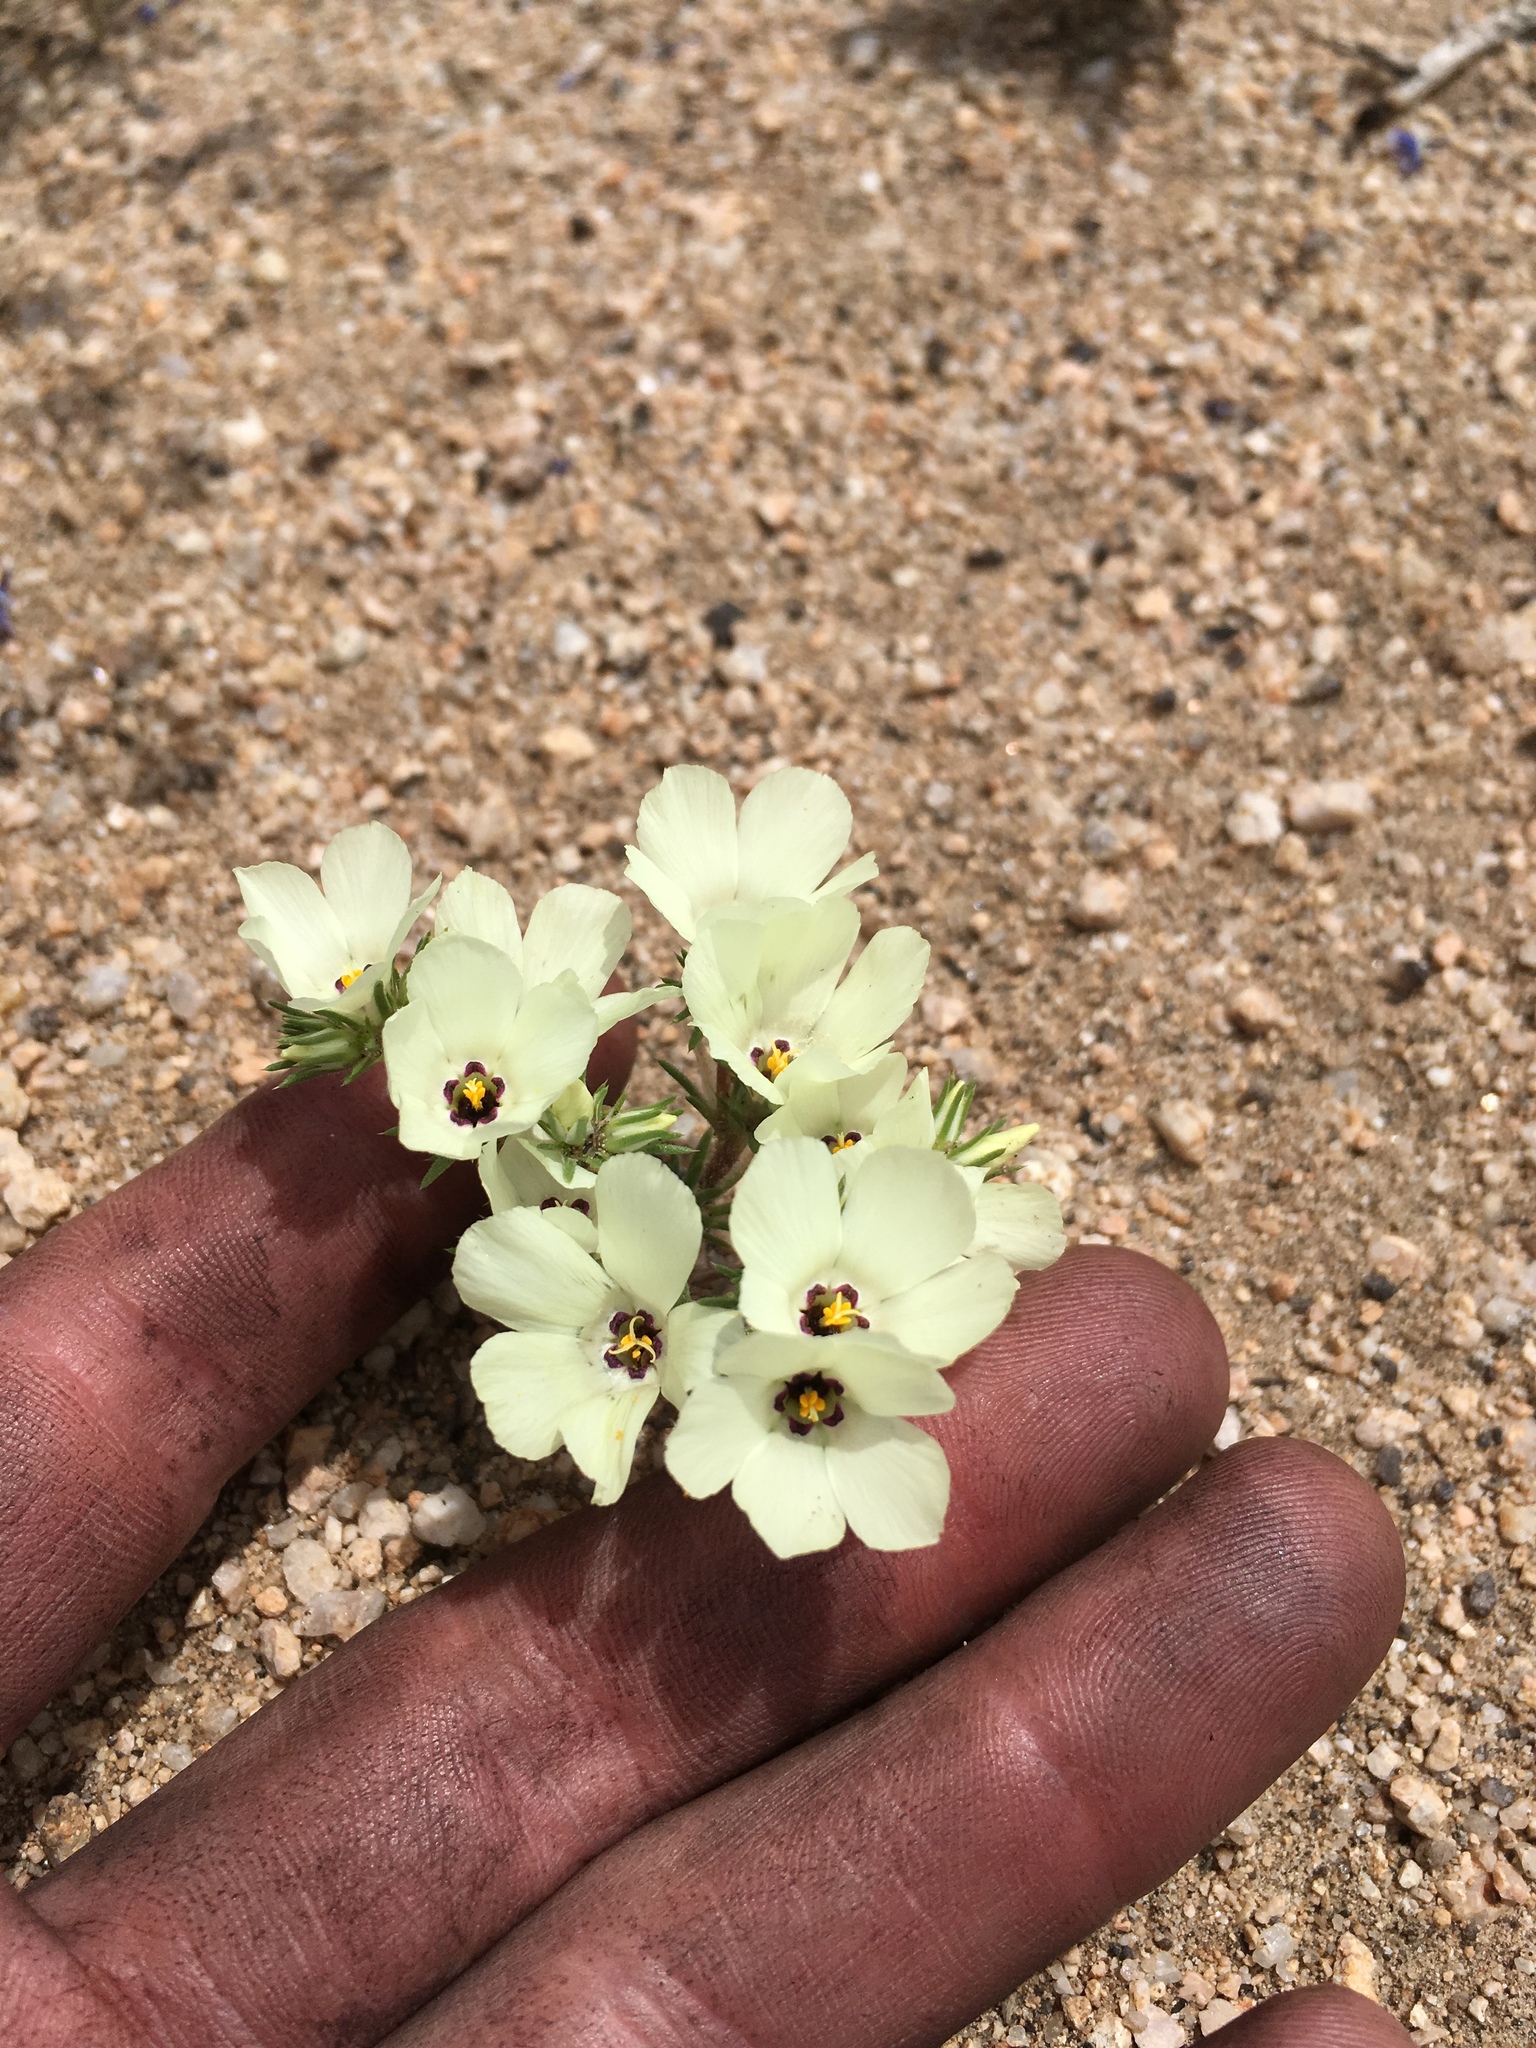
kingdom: Plantae
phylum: Tracheophyta
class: Magnoliopsida
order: Ericales
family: Polemoniaceae
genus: Linanthus
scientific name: Linanthus parryae
